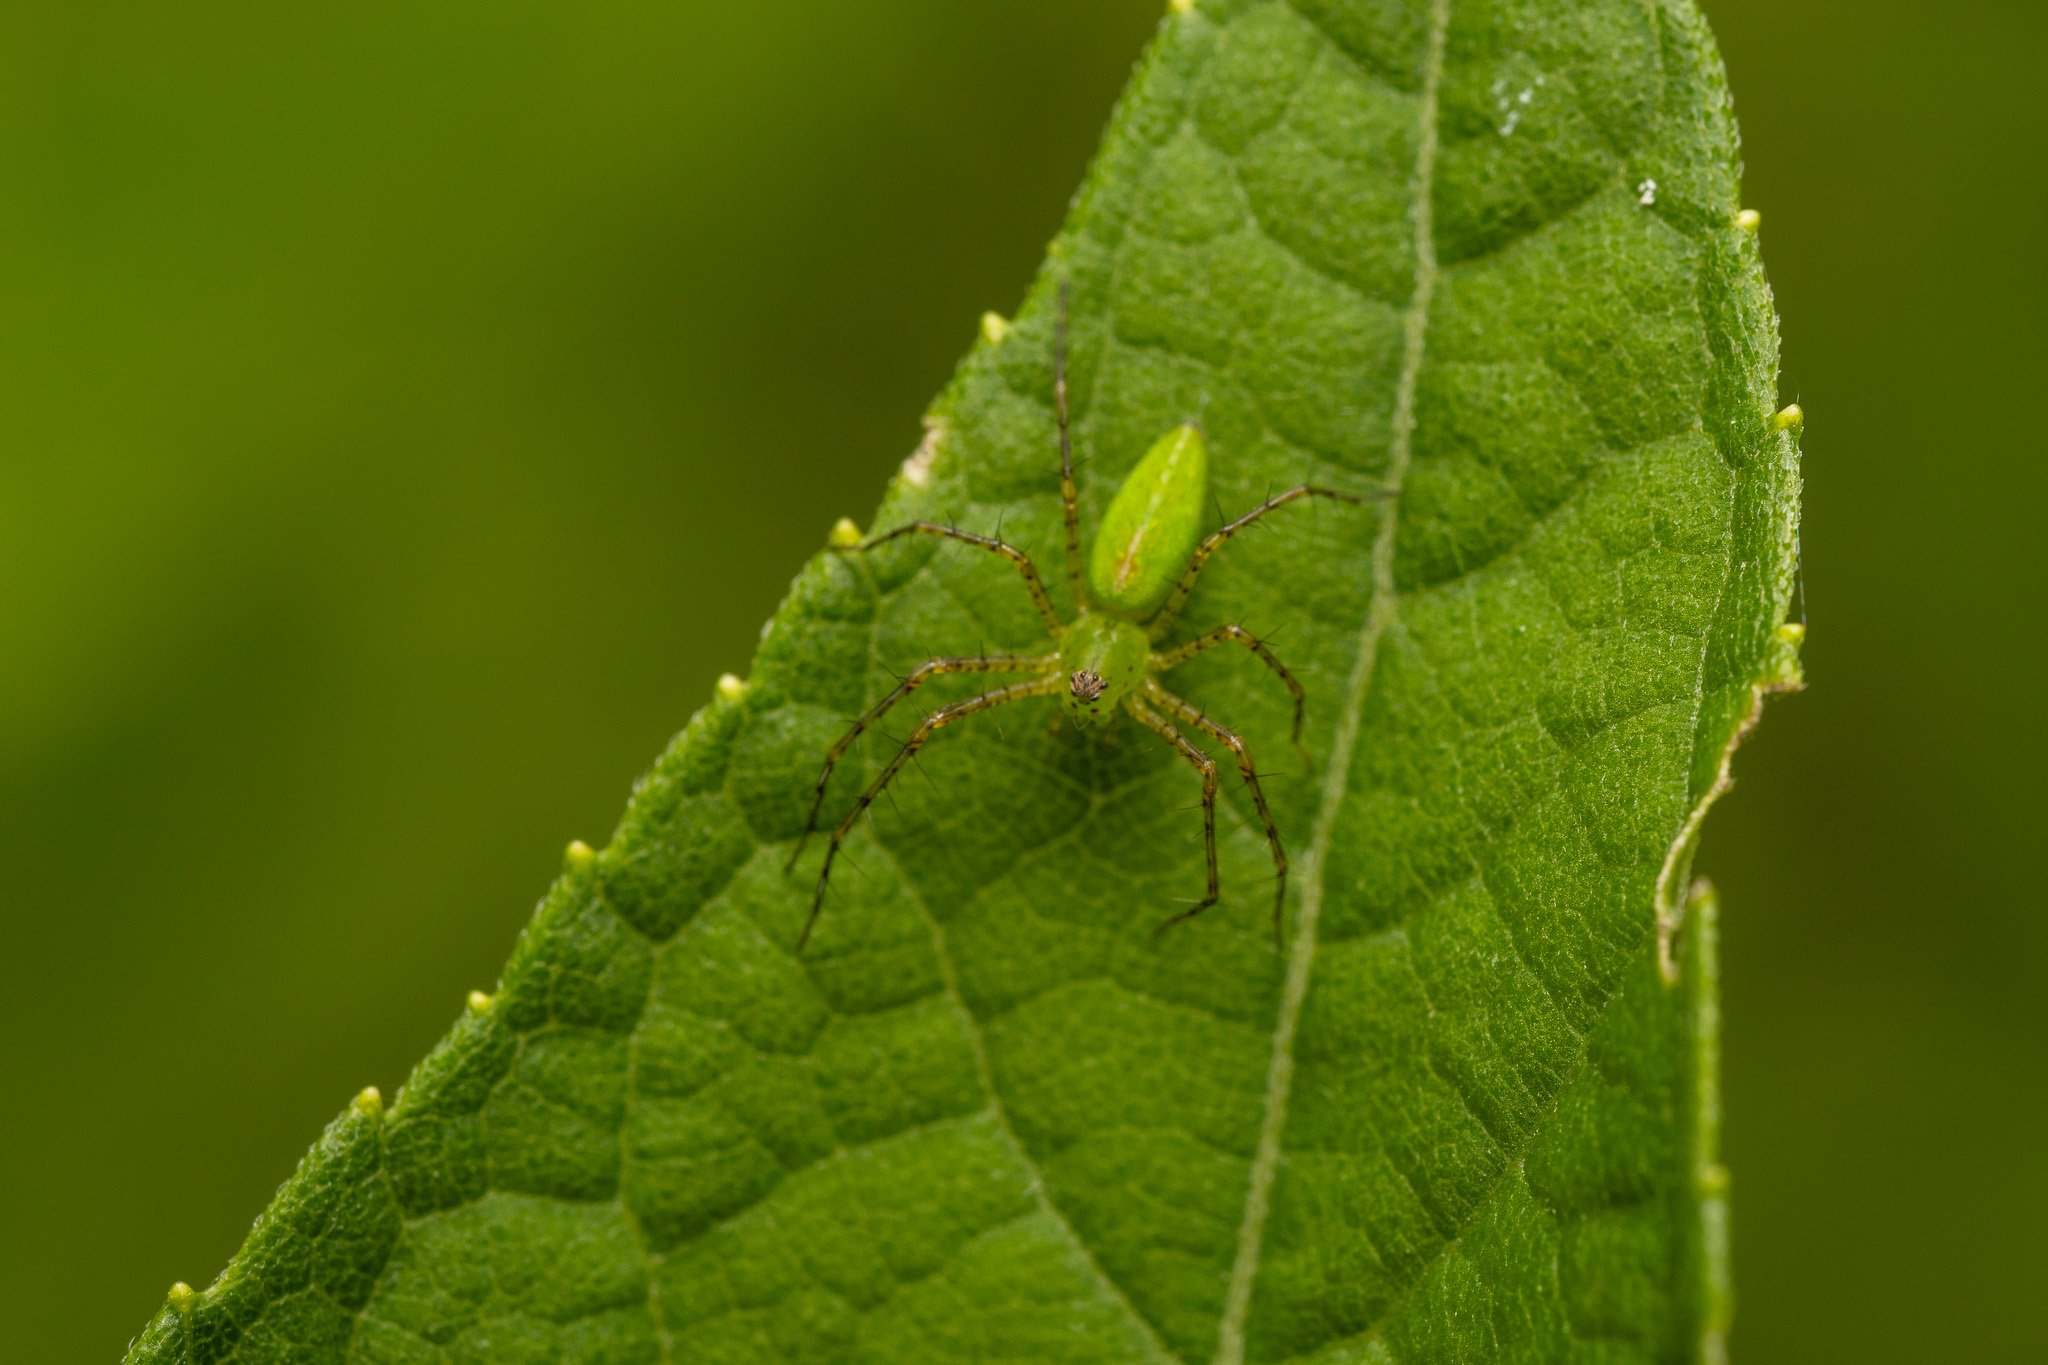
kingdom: Animalia
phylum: Arthropoda
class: Arachnida
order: Araneae
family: Oxyopidae
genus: Peucetia
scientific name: Peucetia viridans
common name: Lynx spiders
